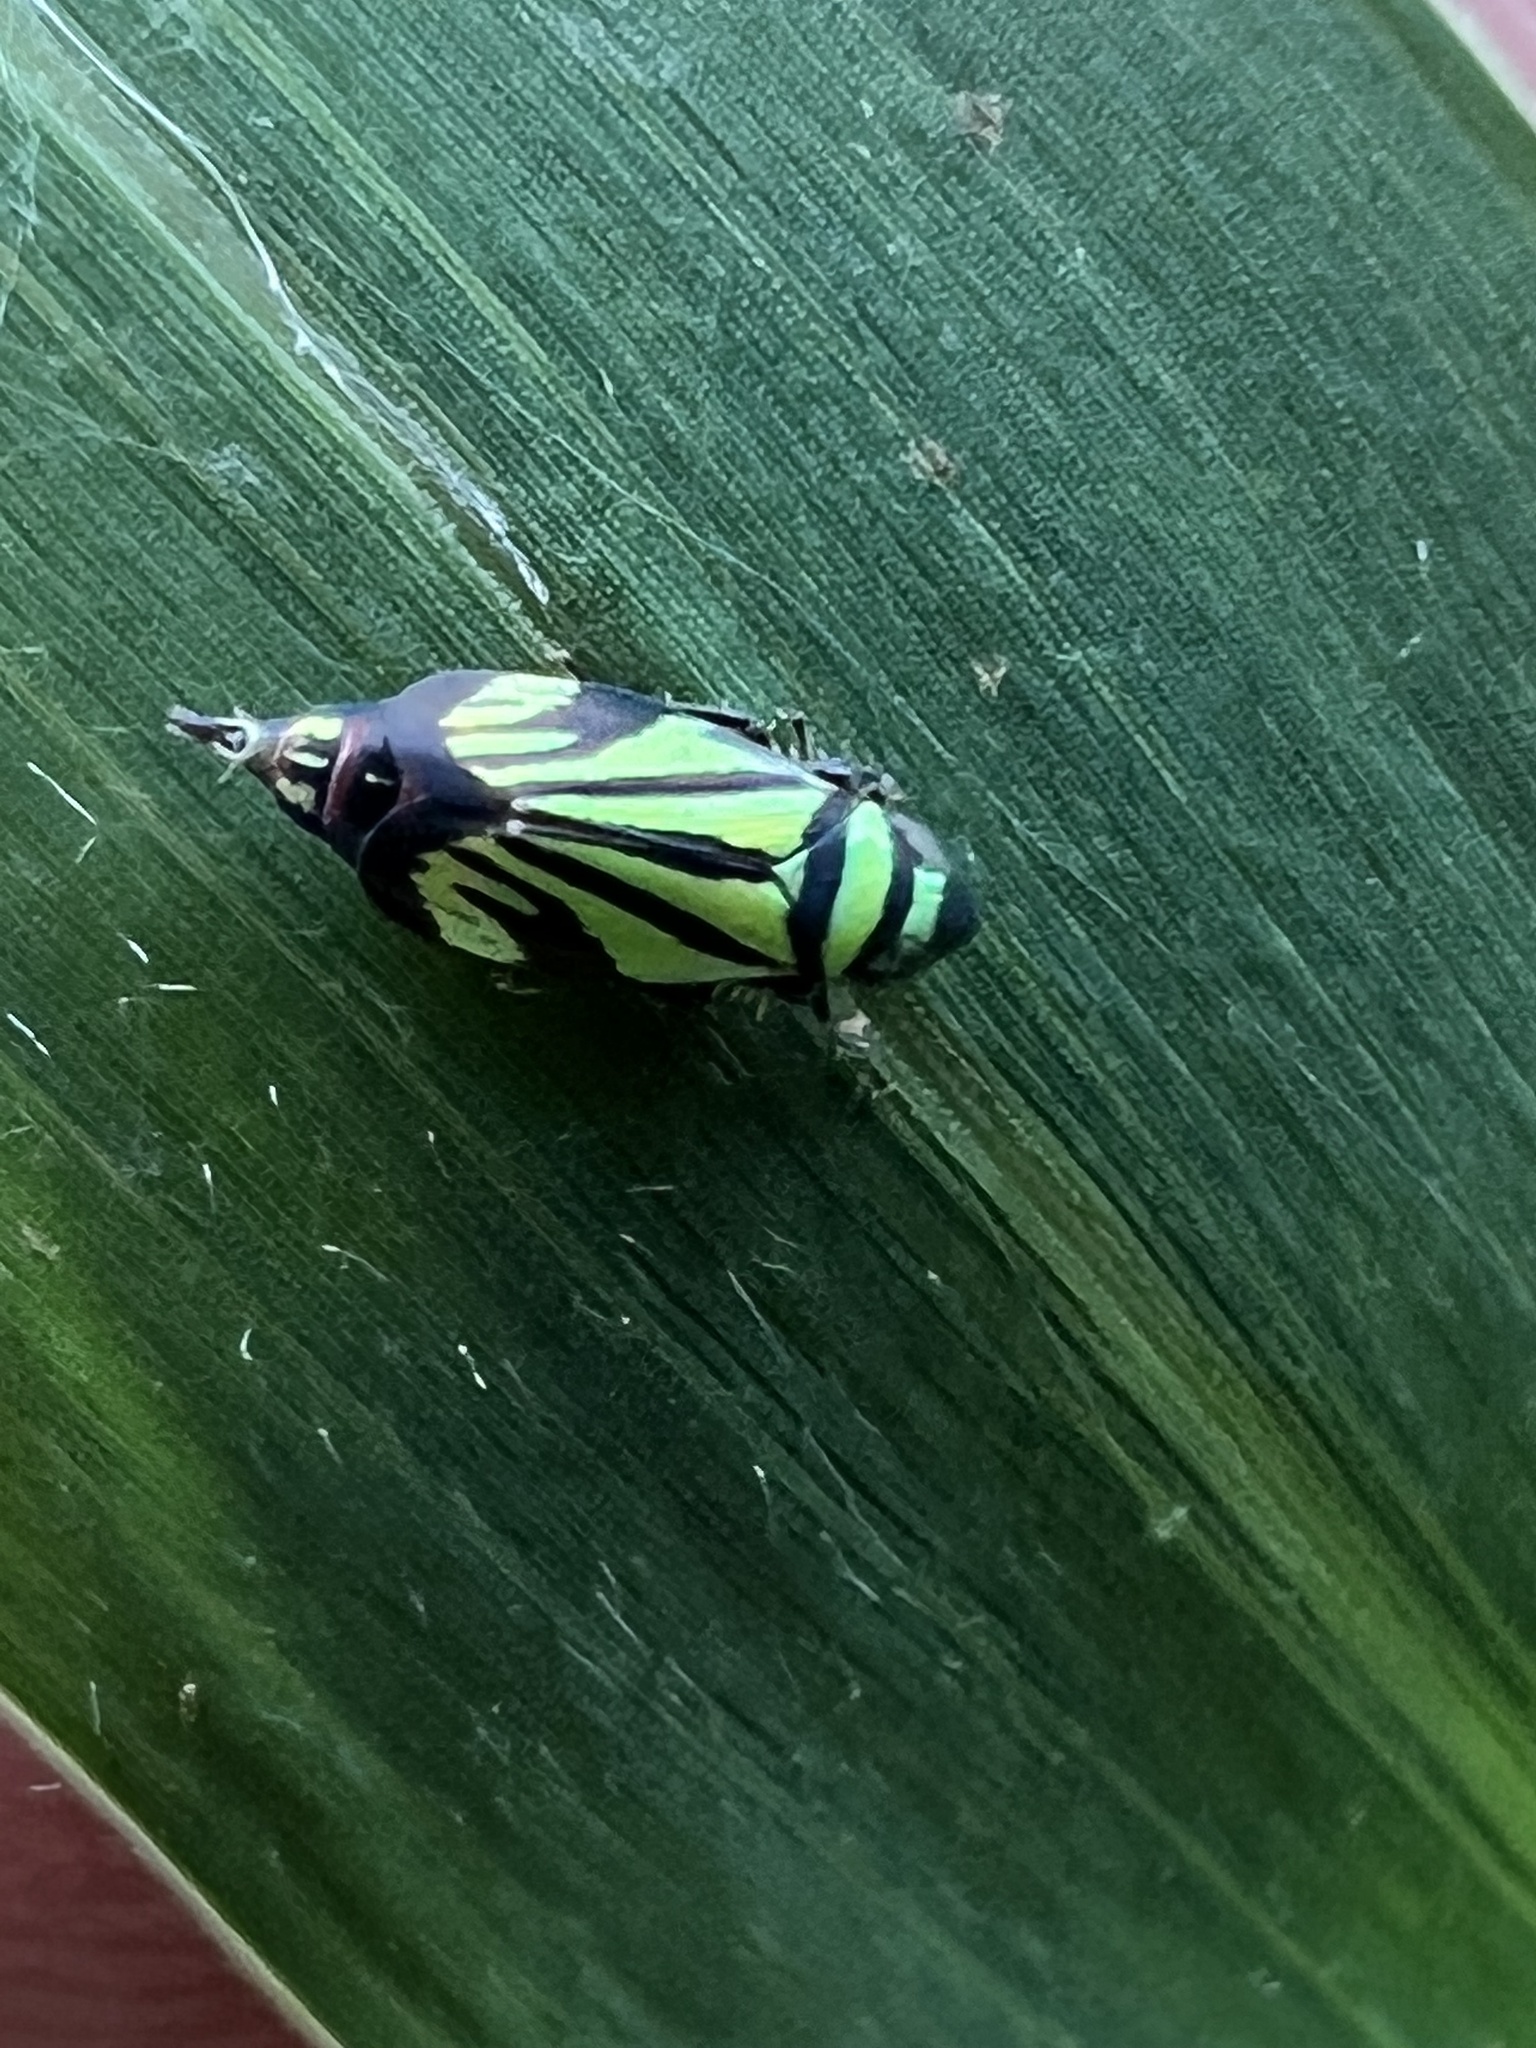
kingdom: Animalia
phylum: Arthropoda
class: Insecta
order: Hemiptera
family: Cicadellidae
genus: Stirellus
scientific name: Stirellus bicolor
